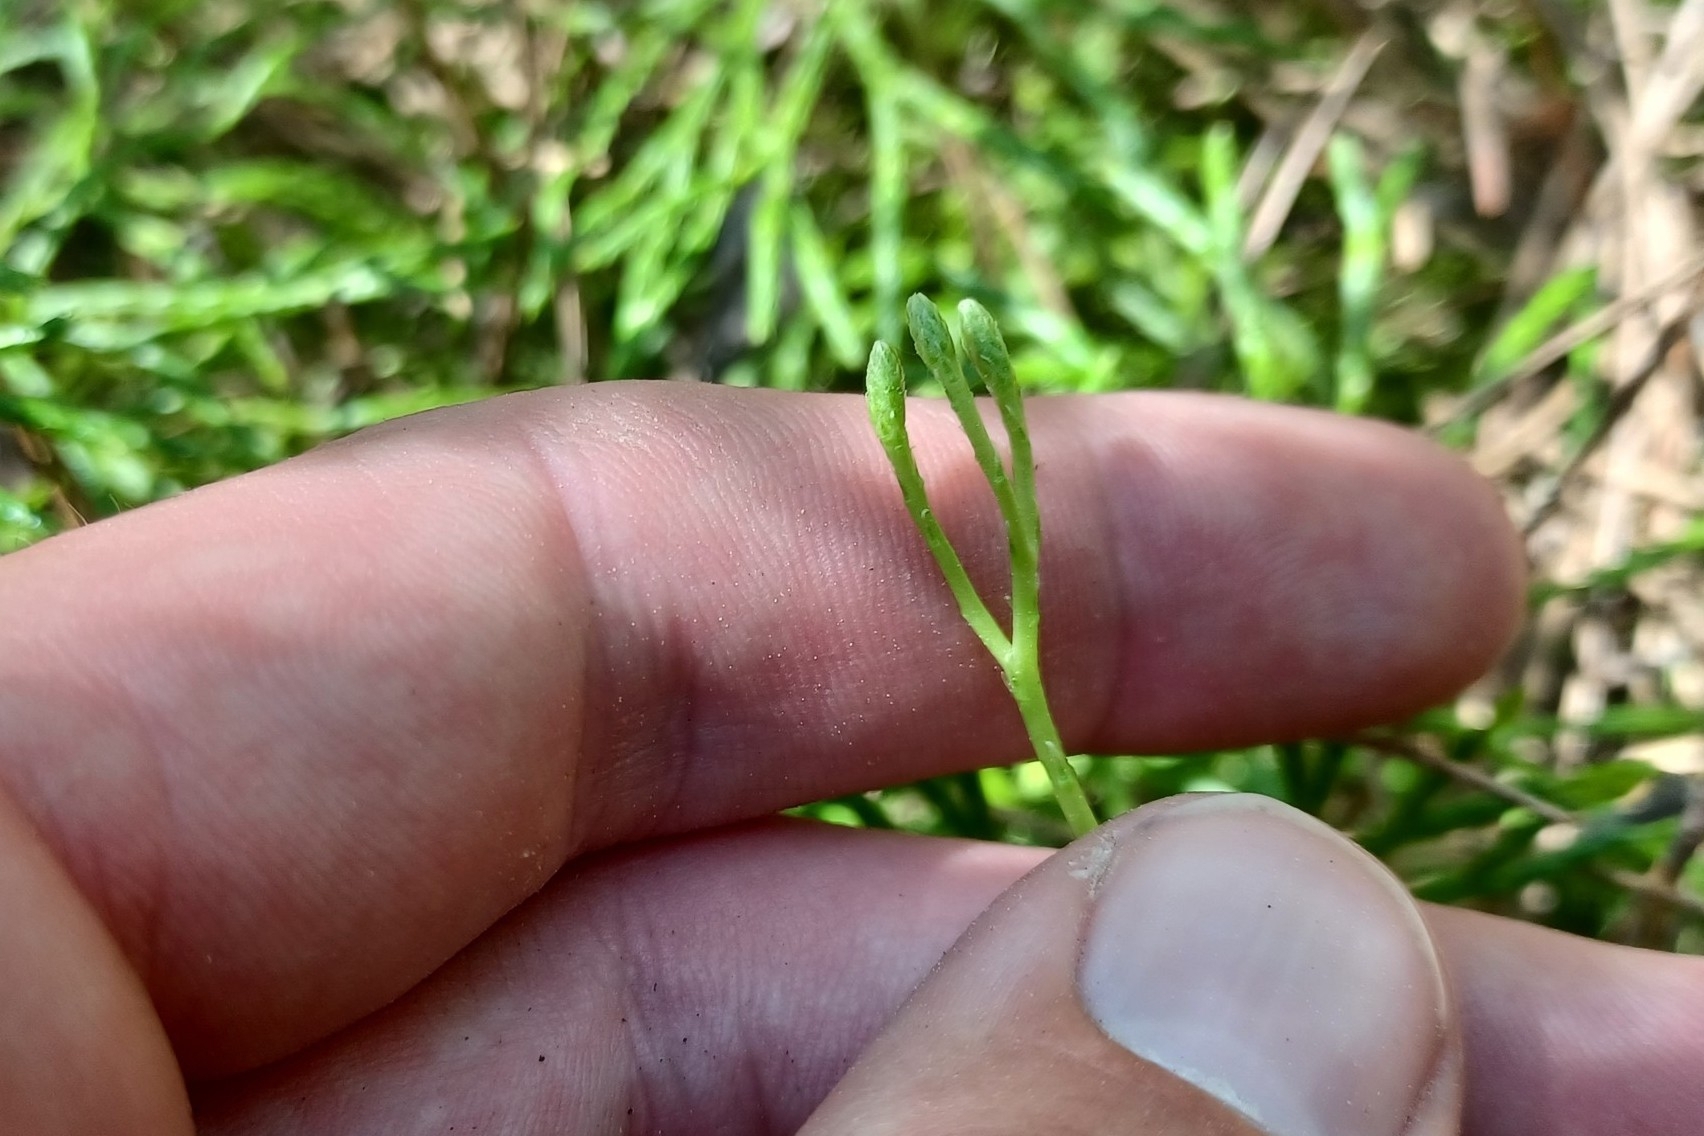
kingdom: Plantae
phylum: Tracheophyta
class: Lycopodiopsida
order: Lycopodiales
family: Lycopodiaceae
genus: Diphasiastrum
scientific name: Diphasiastrum complanatum
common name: Northern running-pine
